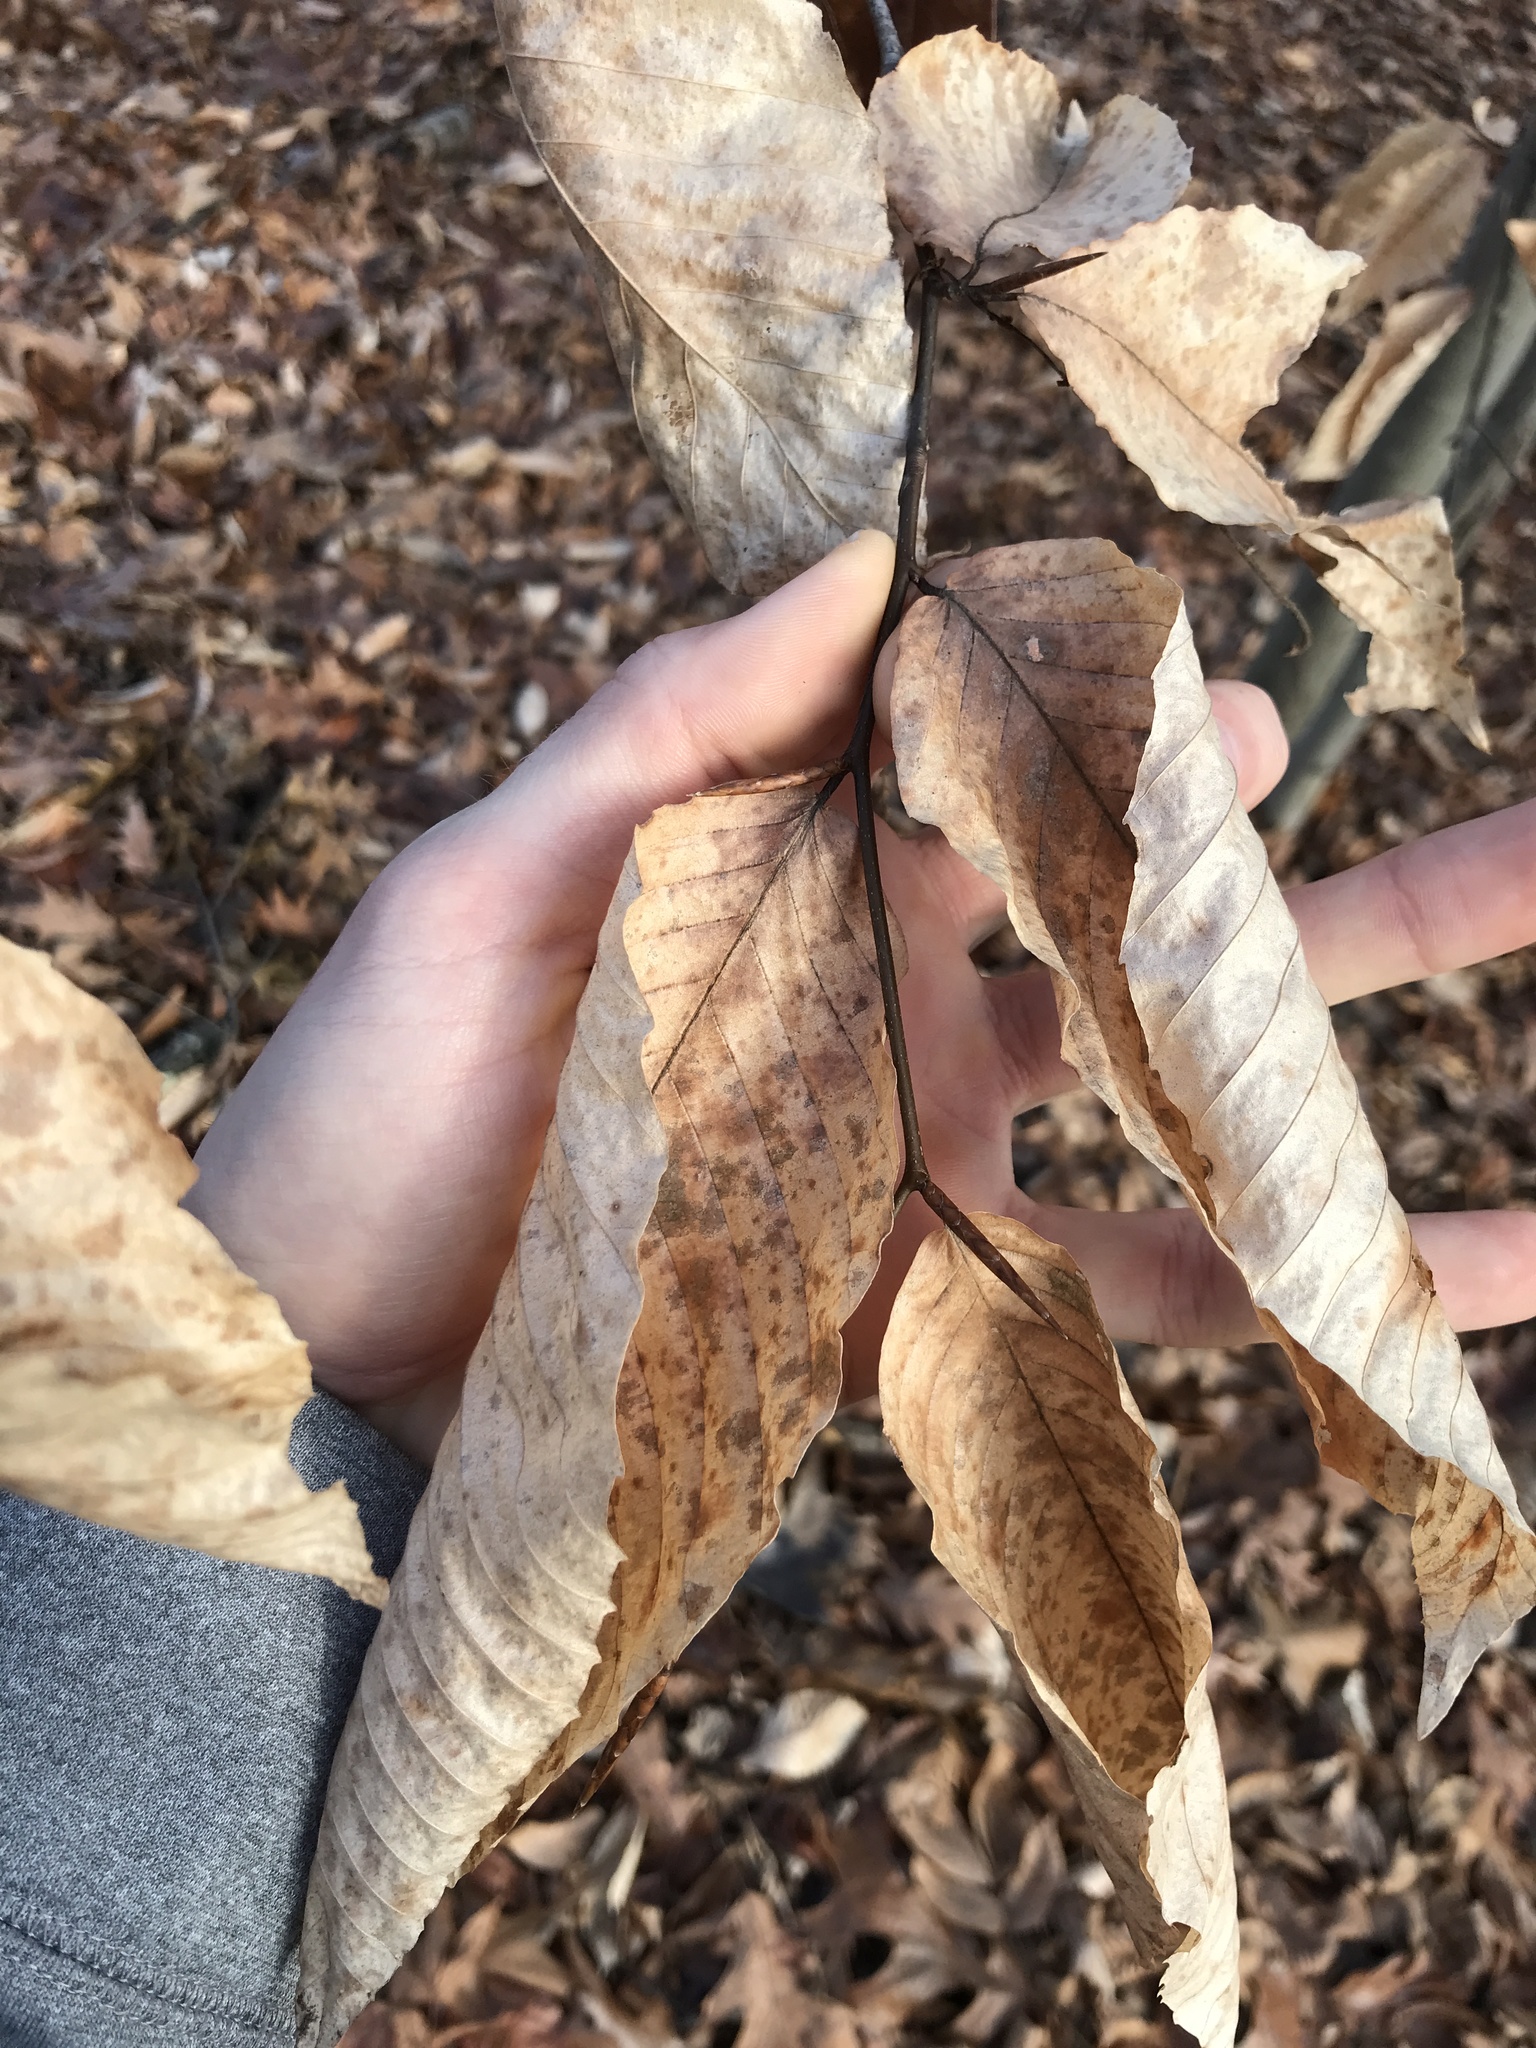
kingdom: Plantae
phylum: Tracheophyta
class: Magnoliopsida
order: Fagales
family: Fagaceae
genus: Fagus
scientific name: Fagus grandifolia
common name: American beech
